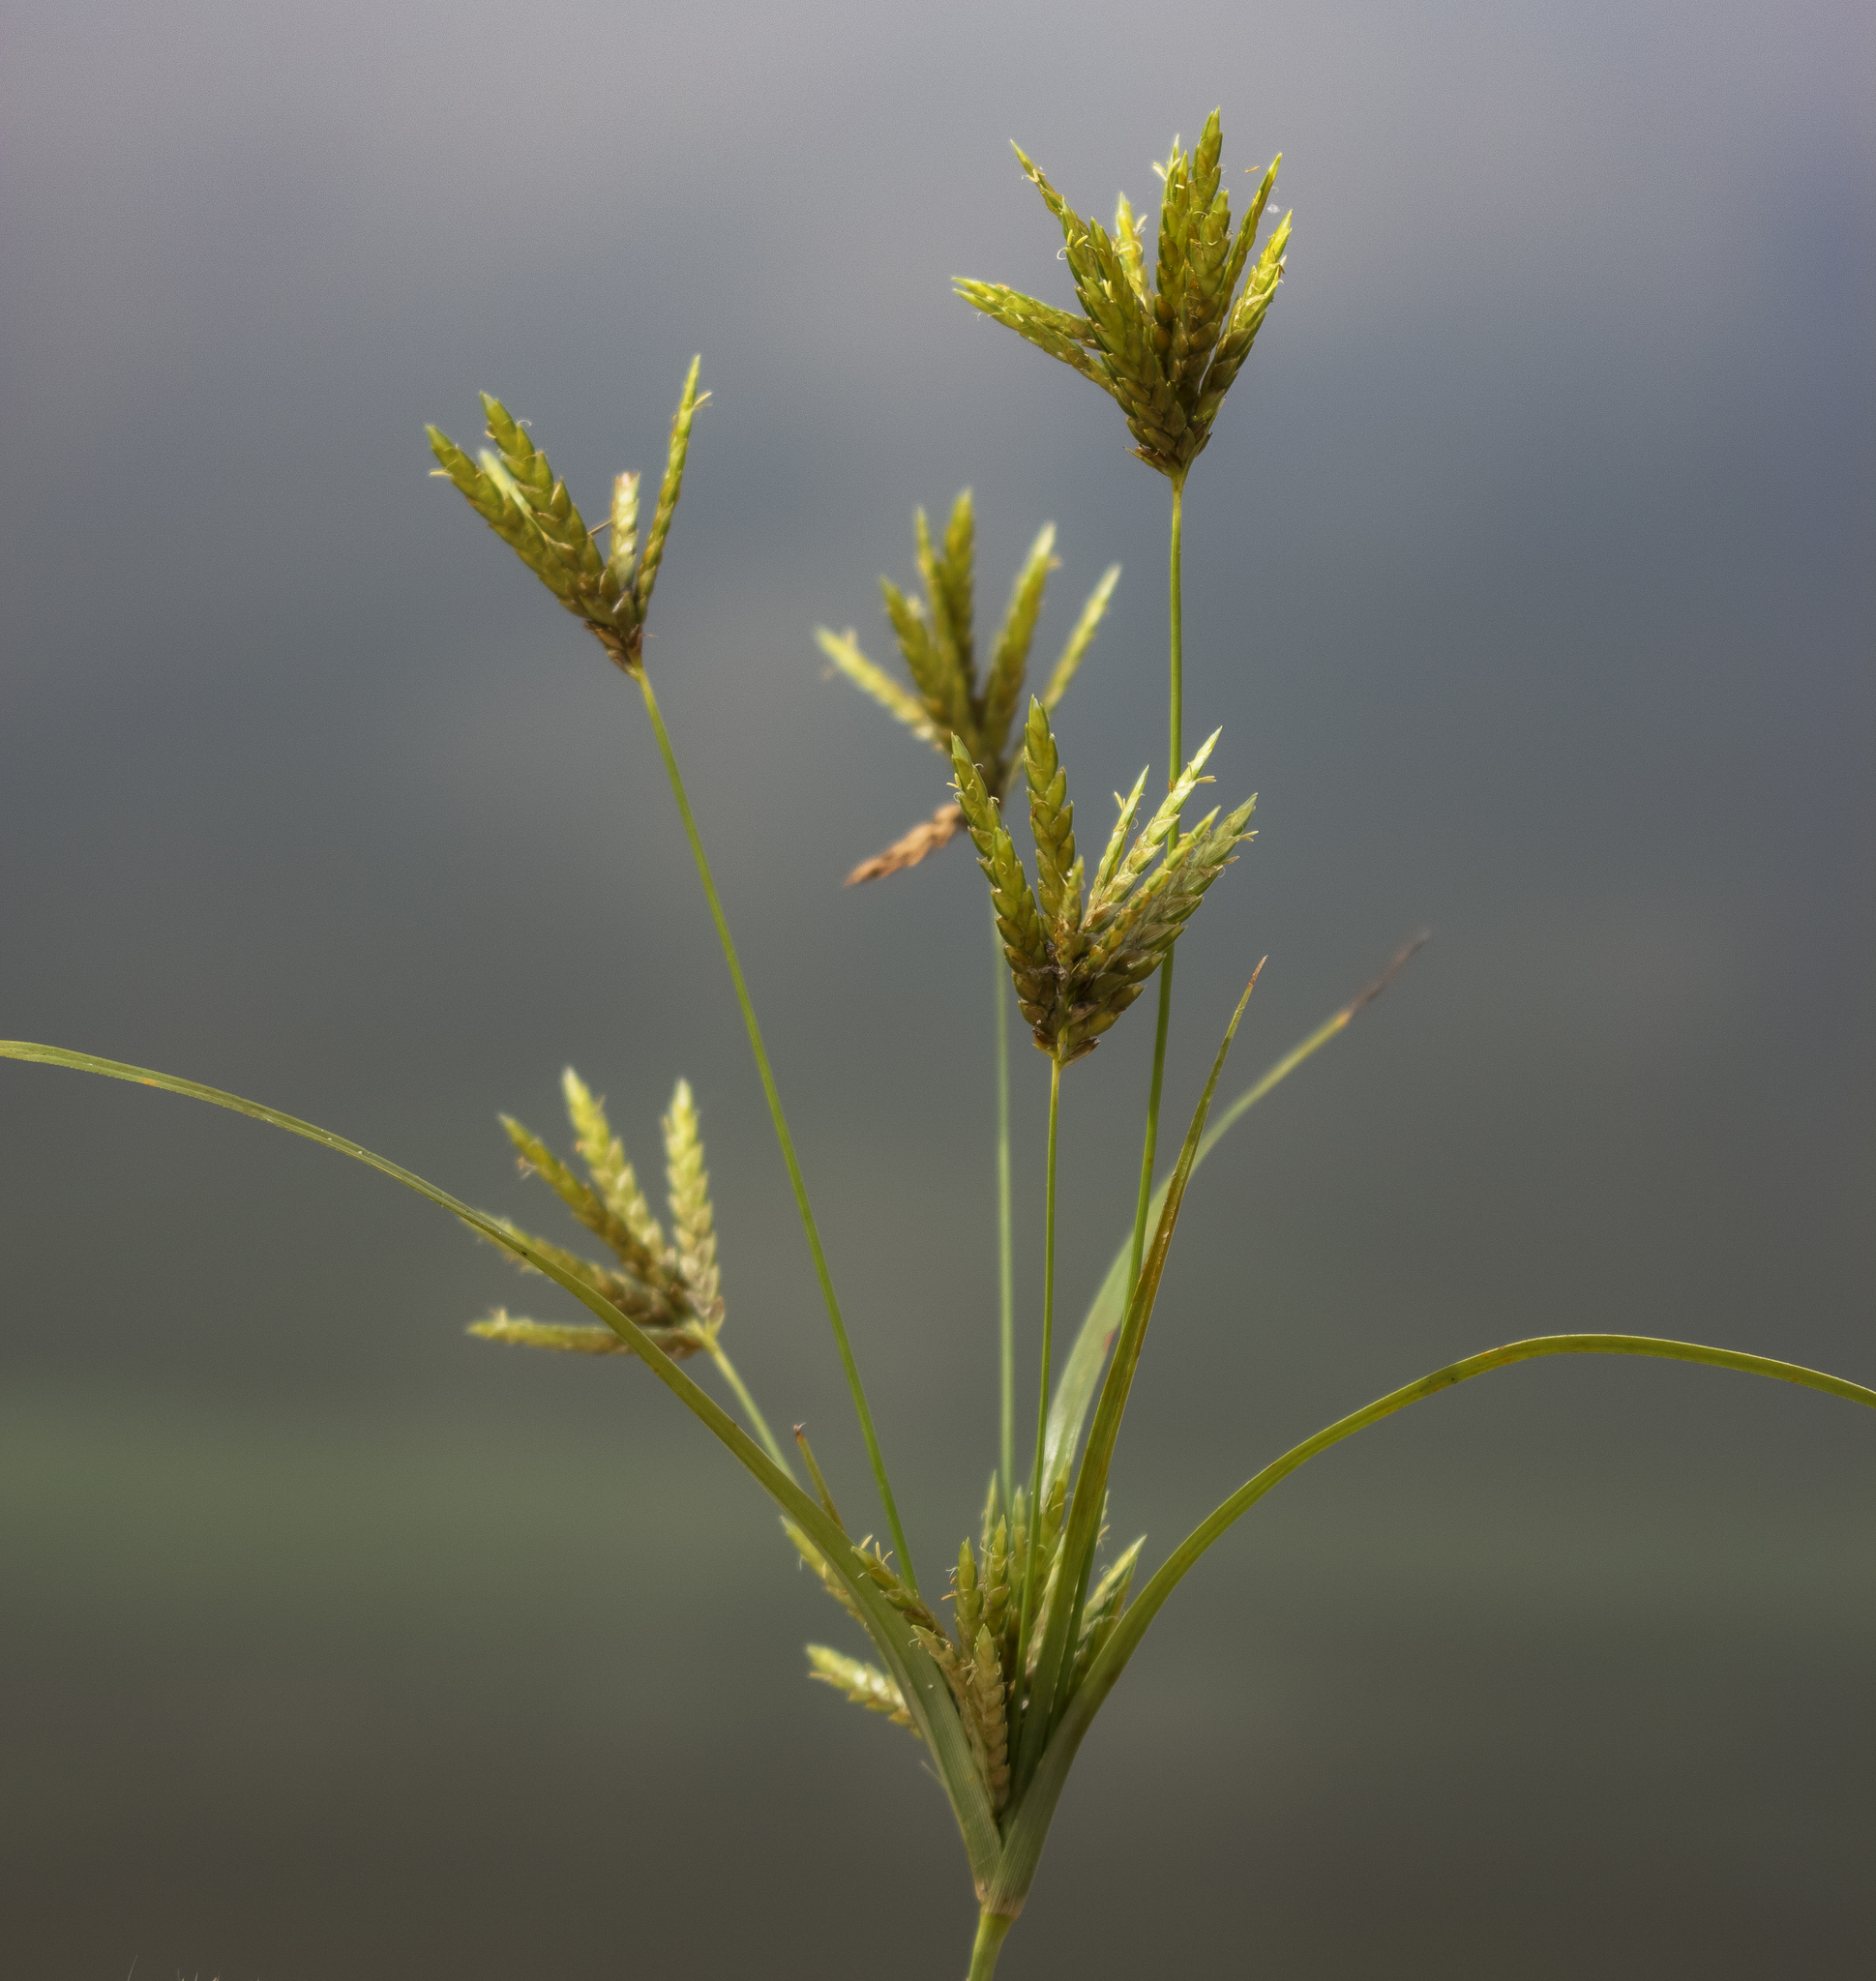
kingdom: Plantae
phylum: Tracheophyta
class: Liliopsida
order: Poales
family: Cyperaceae
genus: Cyperus
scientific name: Cyperus schweinitzii
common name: Schweinitz's cyperus
